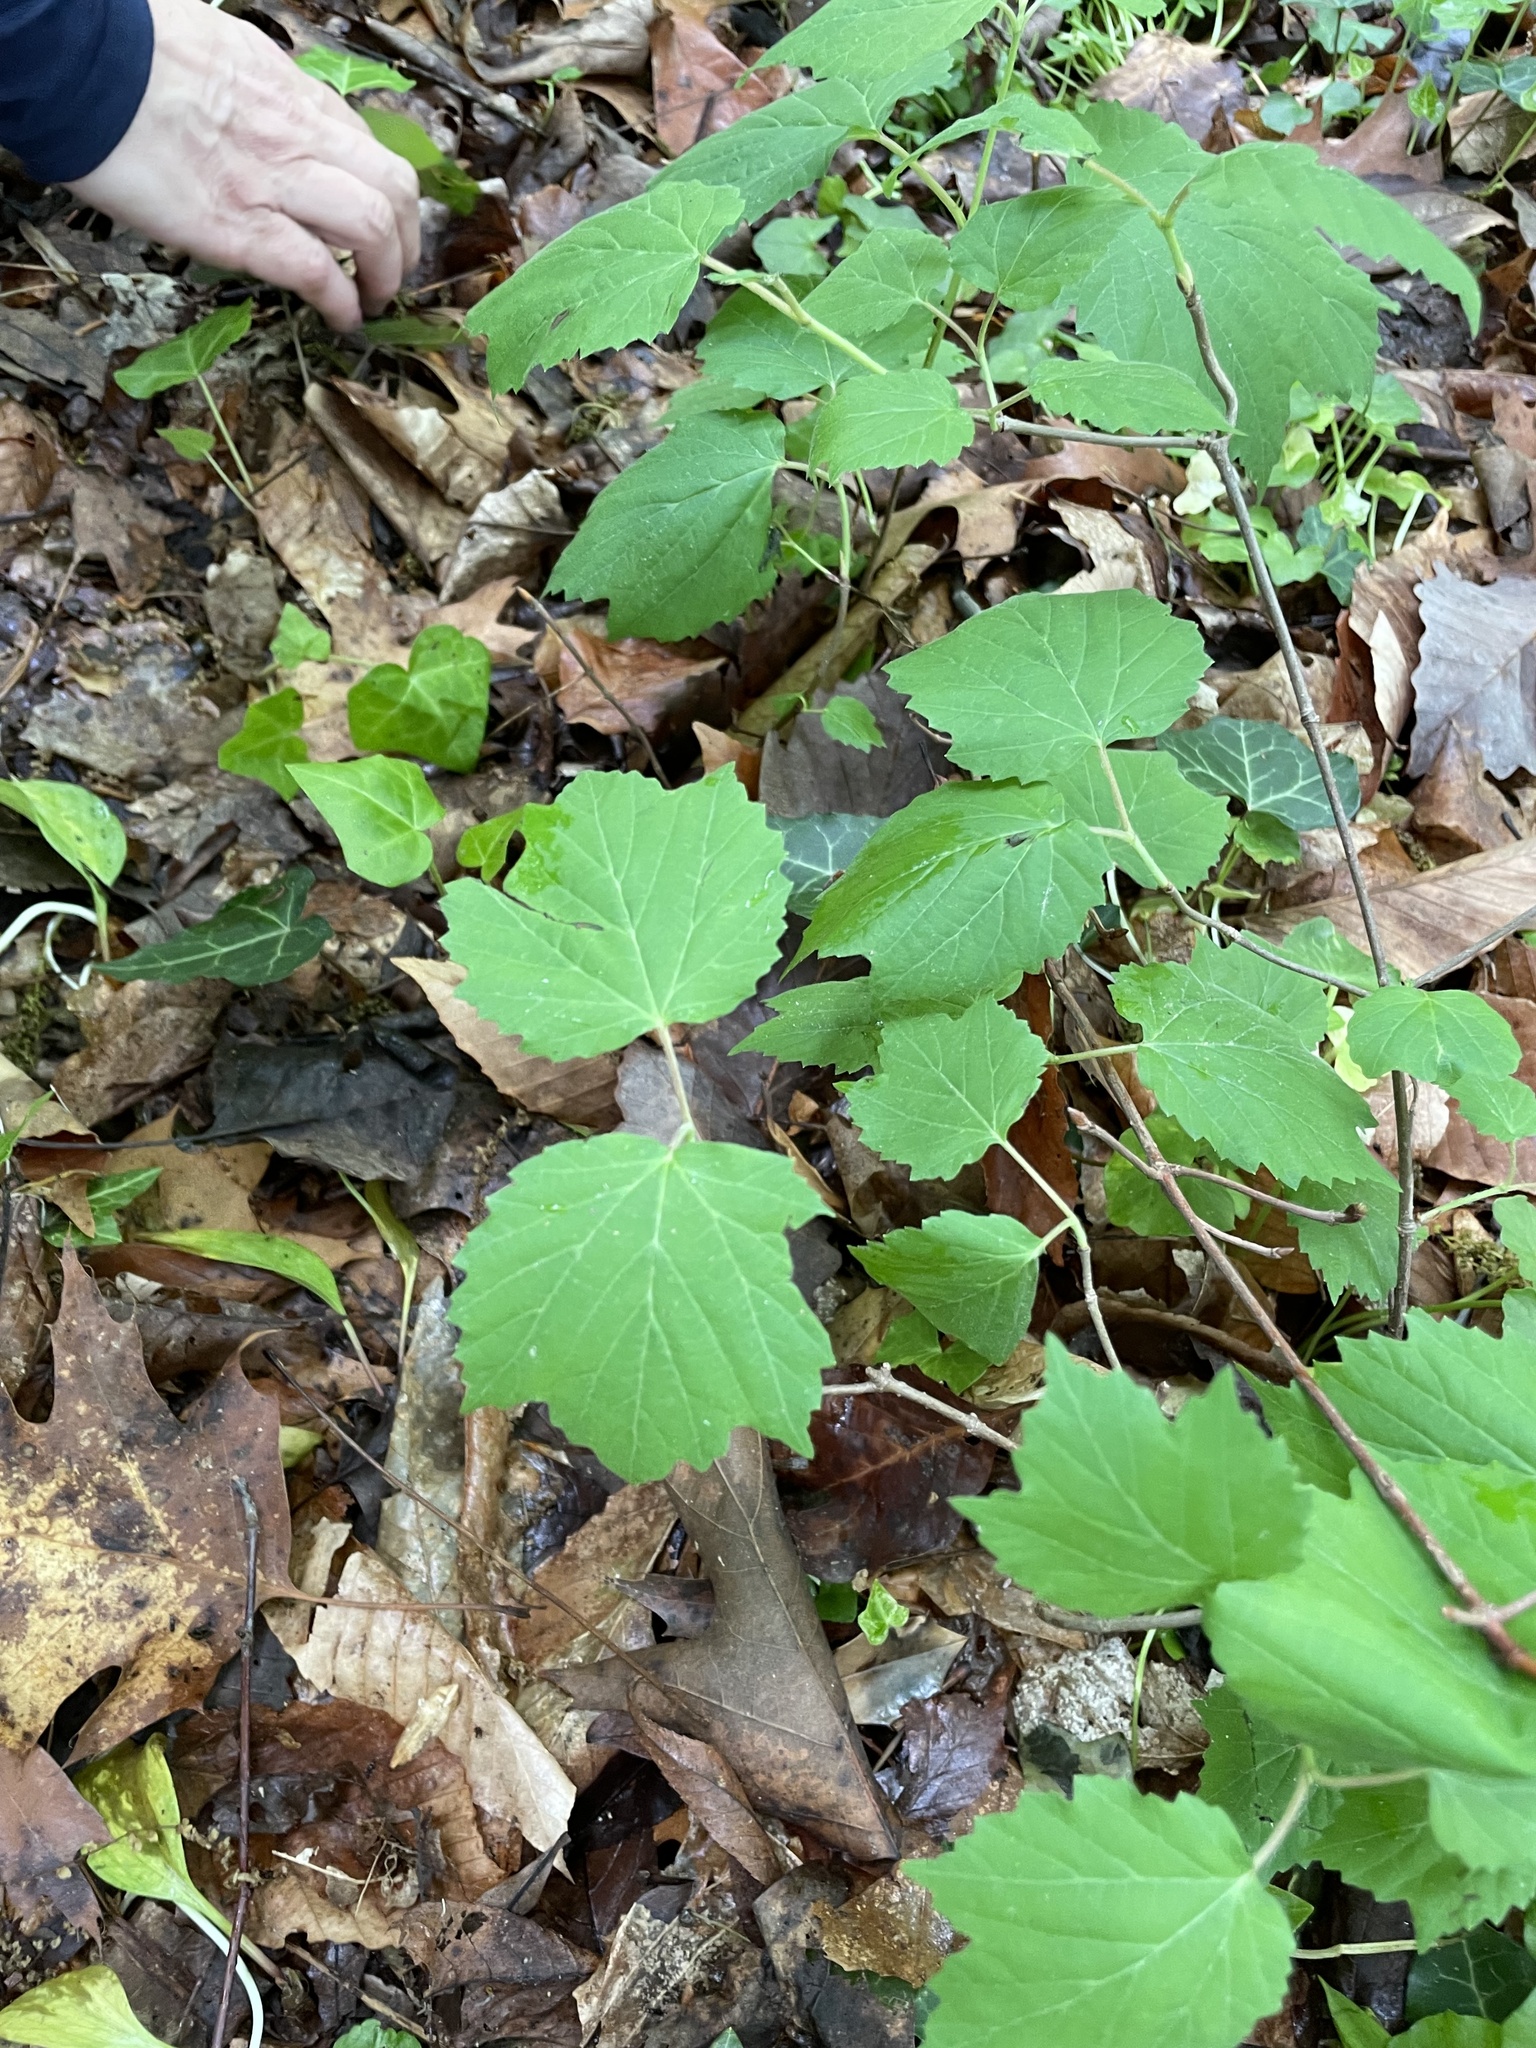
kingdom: Plantae
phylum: Tracheophyta
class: Magnoliopsida
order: Dipsacales
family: Viburnaceae
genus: Viburnum
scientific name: Viburnum acerifolium
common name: Dockmackie
